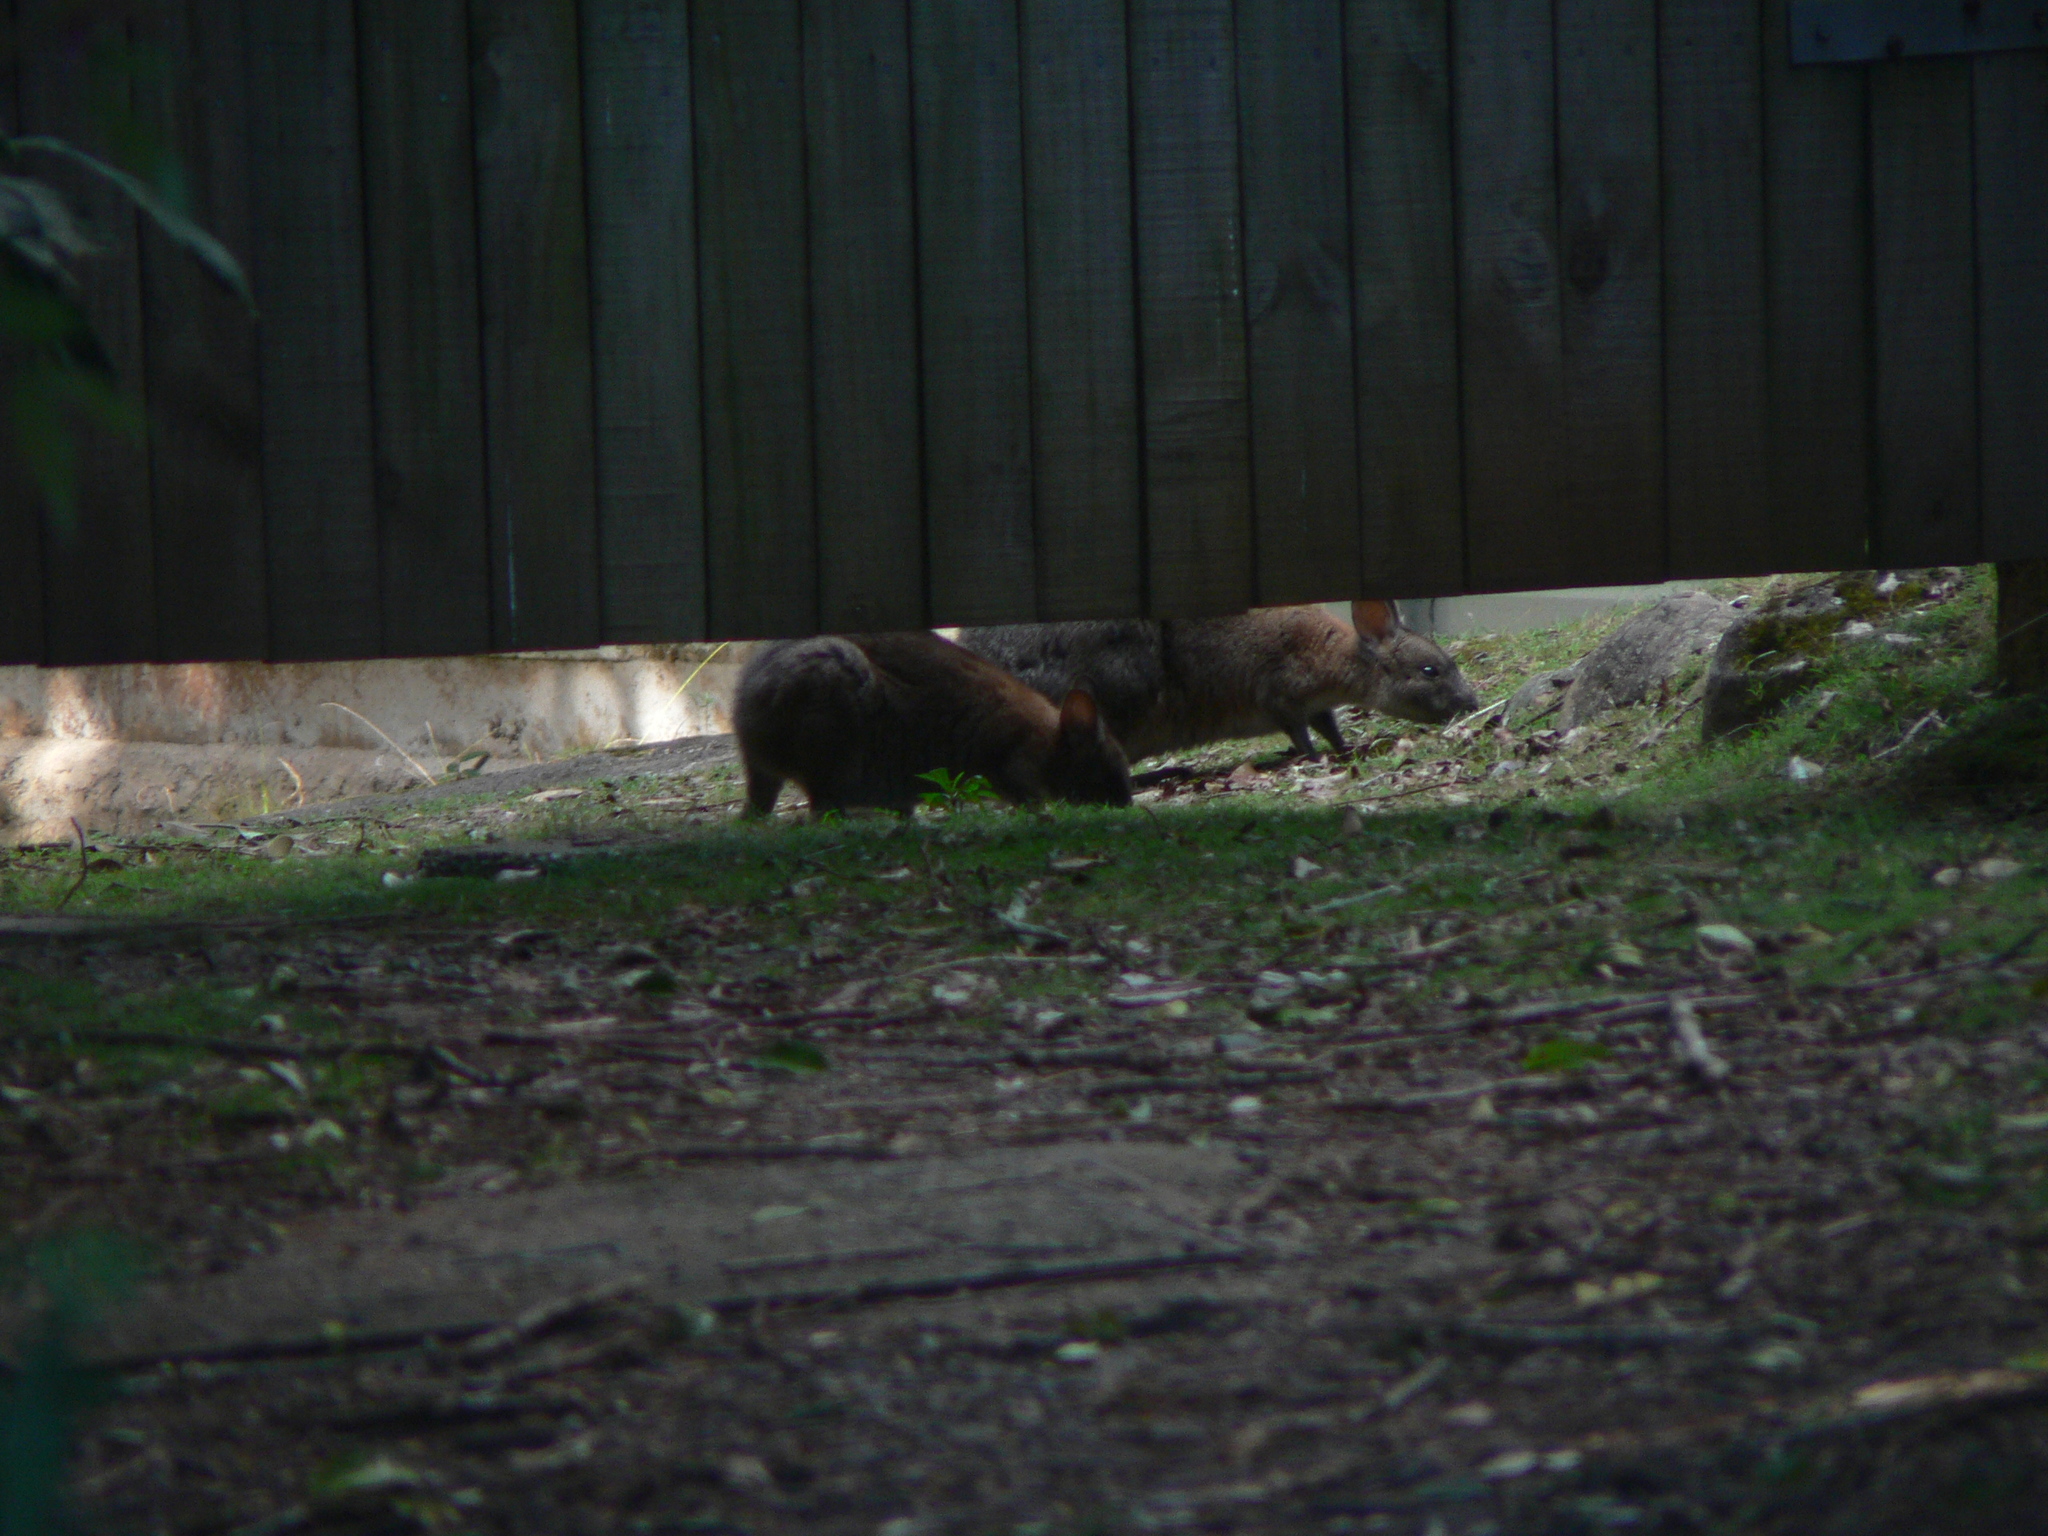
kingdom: Animalia
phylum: Chordata
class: Mammalia
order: Diprotodontia
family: Macropodidae
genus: Thylogale
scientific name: Thylogale thetis
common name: Red-necked pademelon
